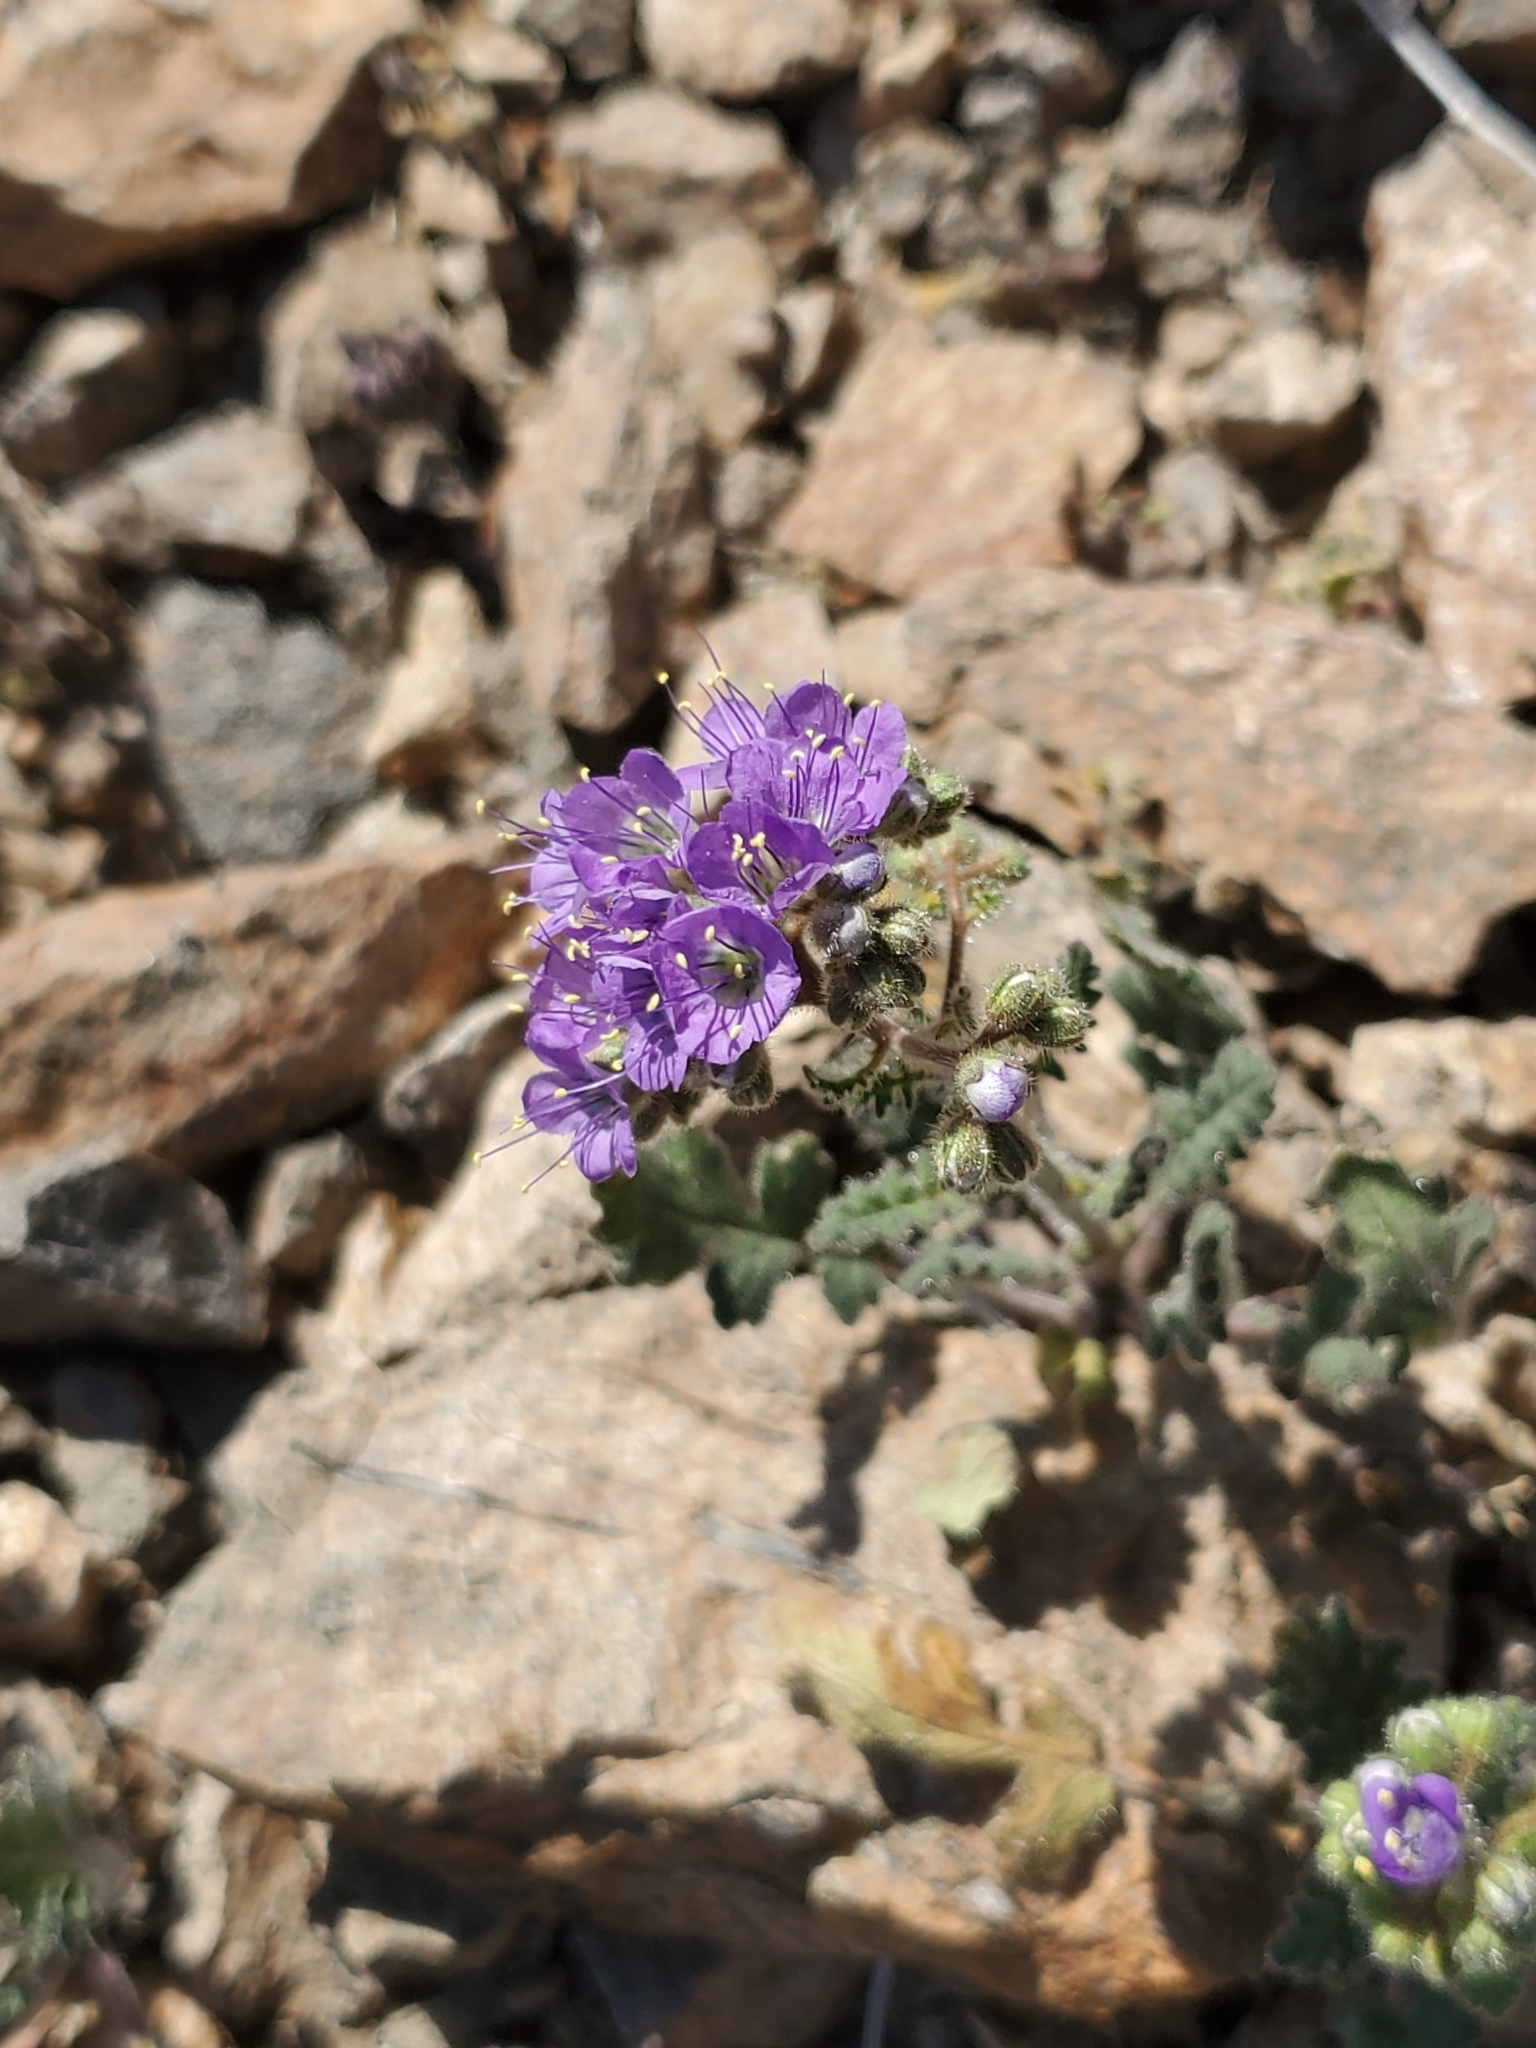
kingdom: Plantae
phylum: Tracheophyta
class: Magnoliopsida
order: Boraginales
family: Hydrophyllaceae
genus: Phacelia
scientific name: Phacelia crenulata
